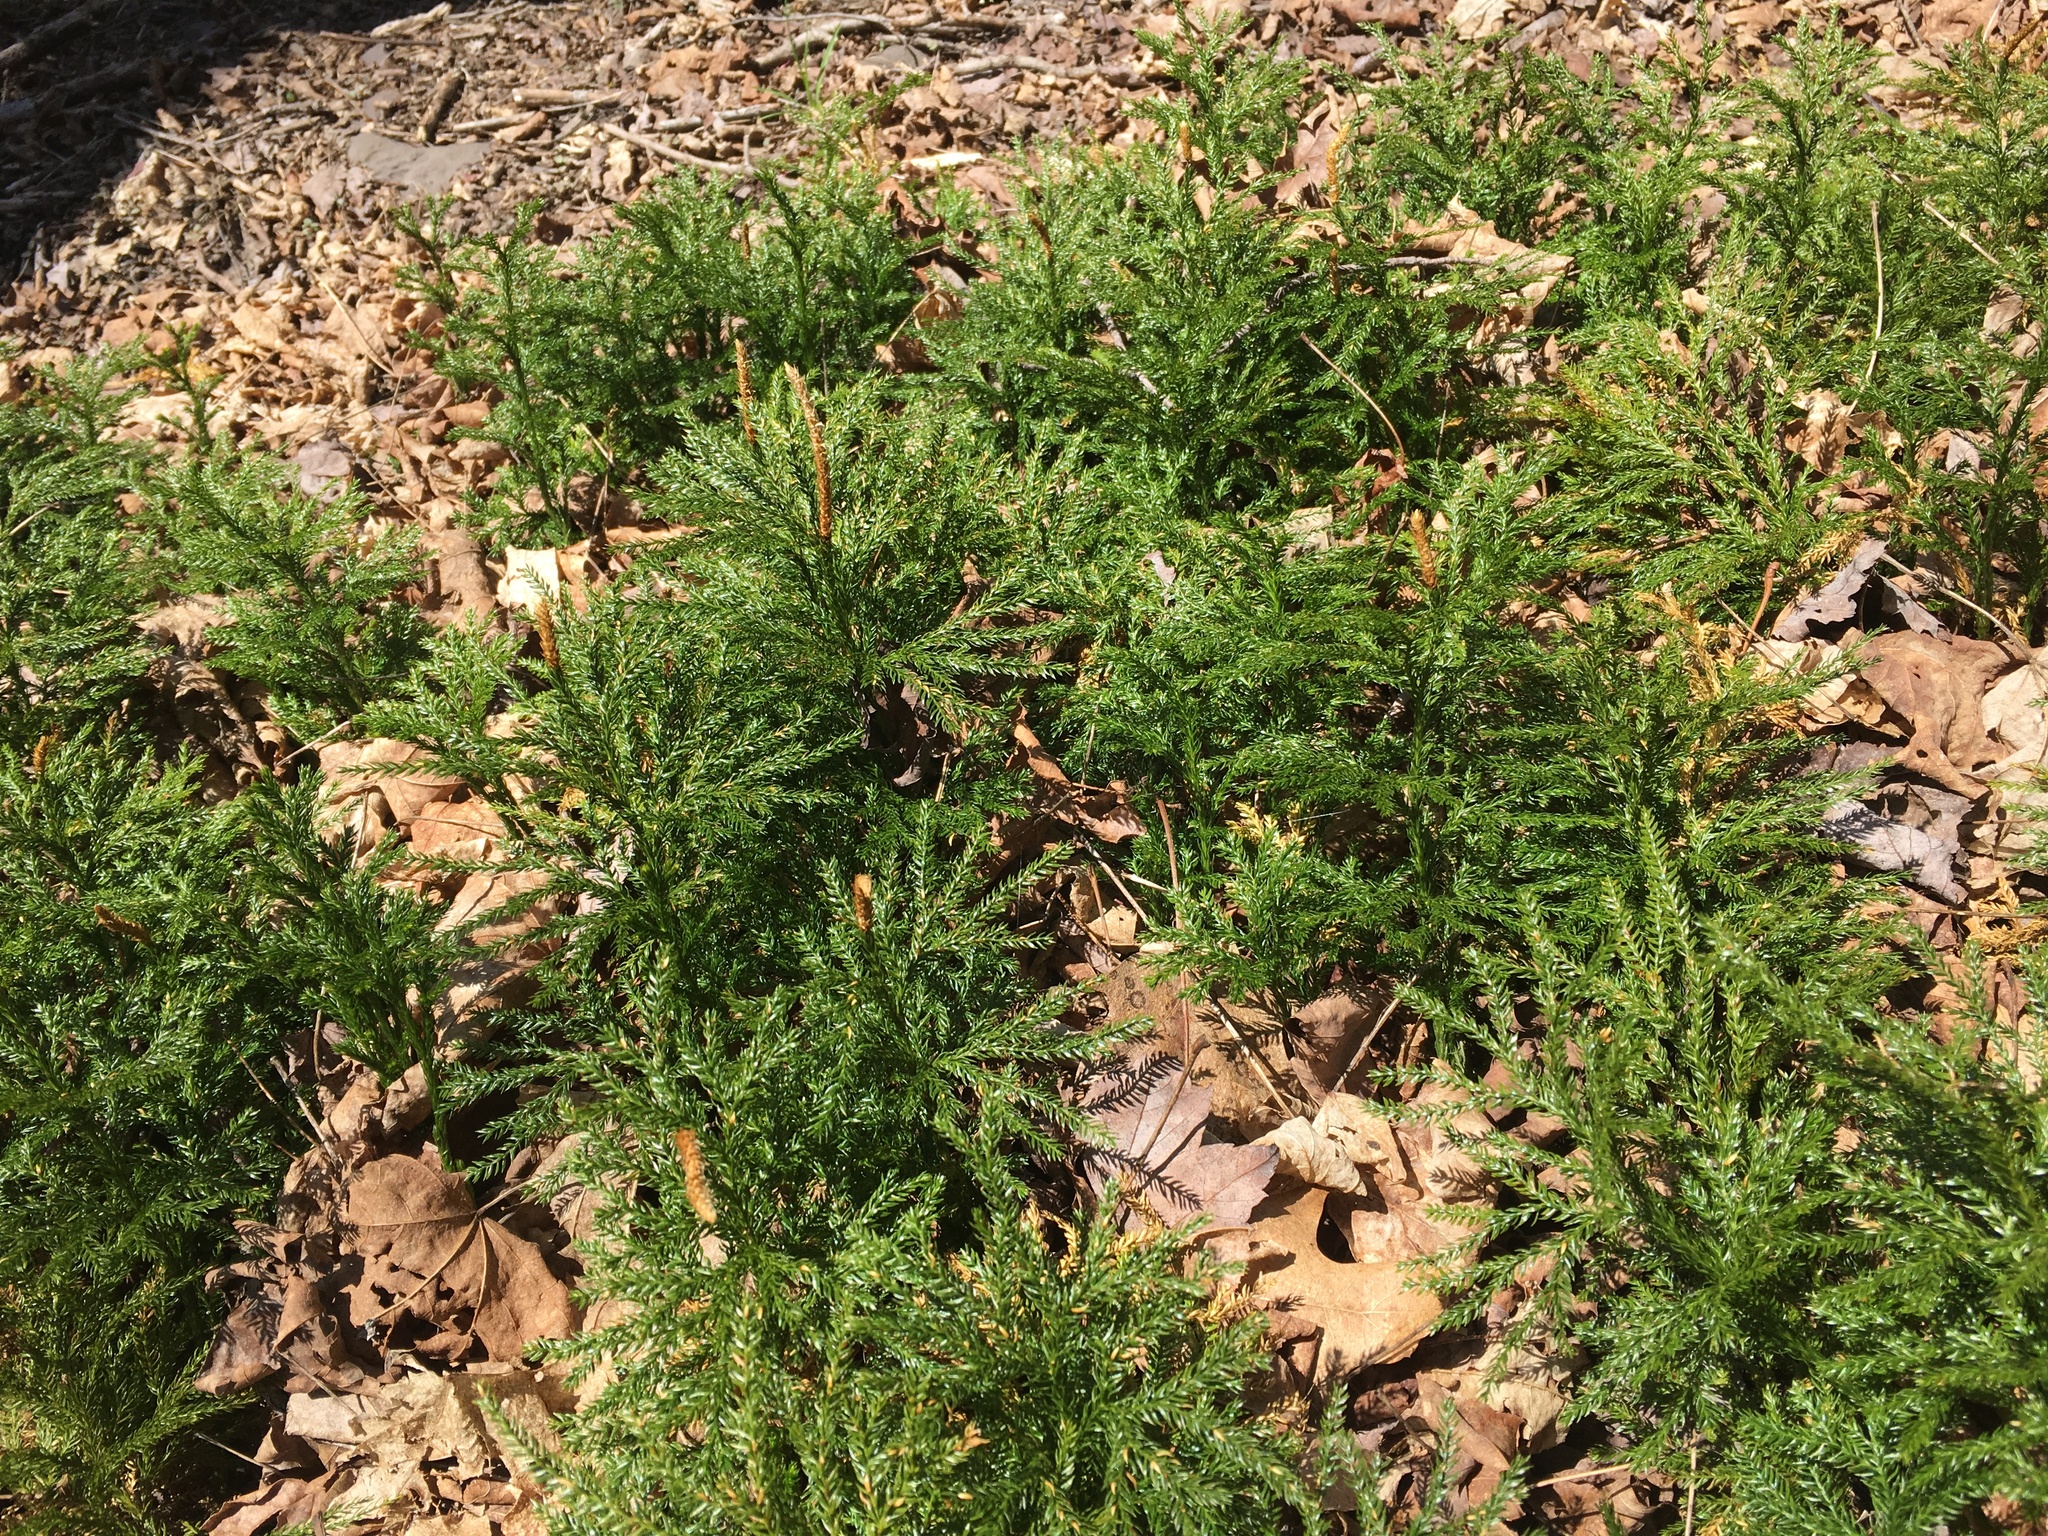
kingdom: Plantae
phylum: Tracheophyta
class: Lycopodiopsida
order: Lycopodiales
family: Lycopodiaceae
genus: Dendrolycopodium
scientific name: Dendrolycopodium obscurum
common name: Common ground-pine
